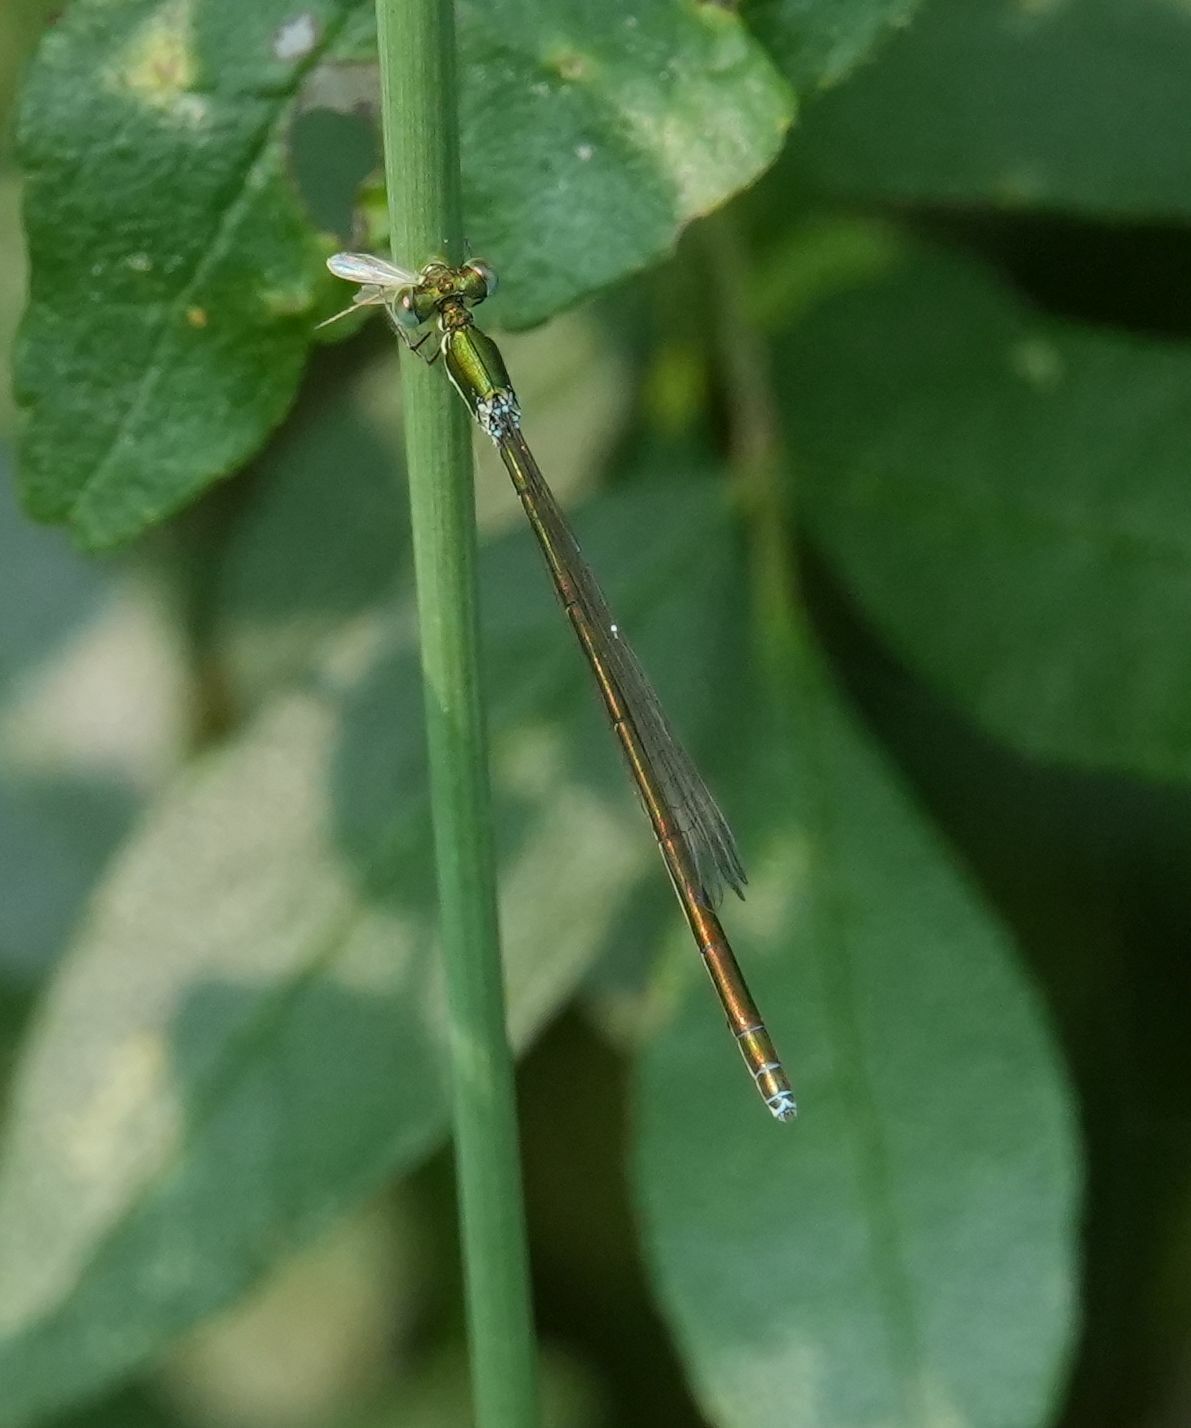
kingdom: Animalia
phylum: Arthropoda
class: Insecta
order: Odonata
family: Coenagrionidae
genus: Nehalennia
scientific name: Nehalennia irene
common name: Sedge sprite
